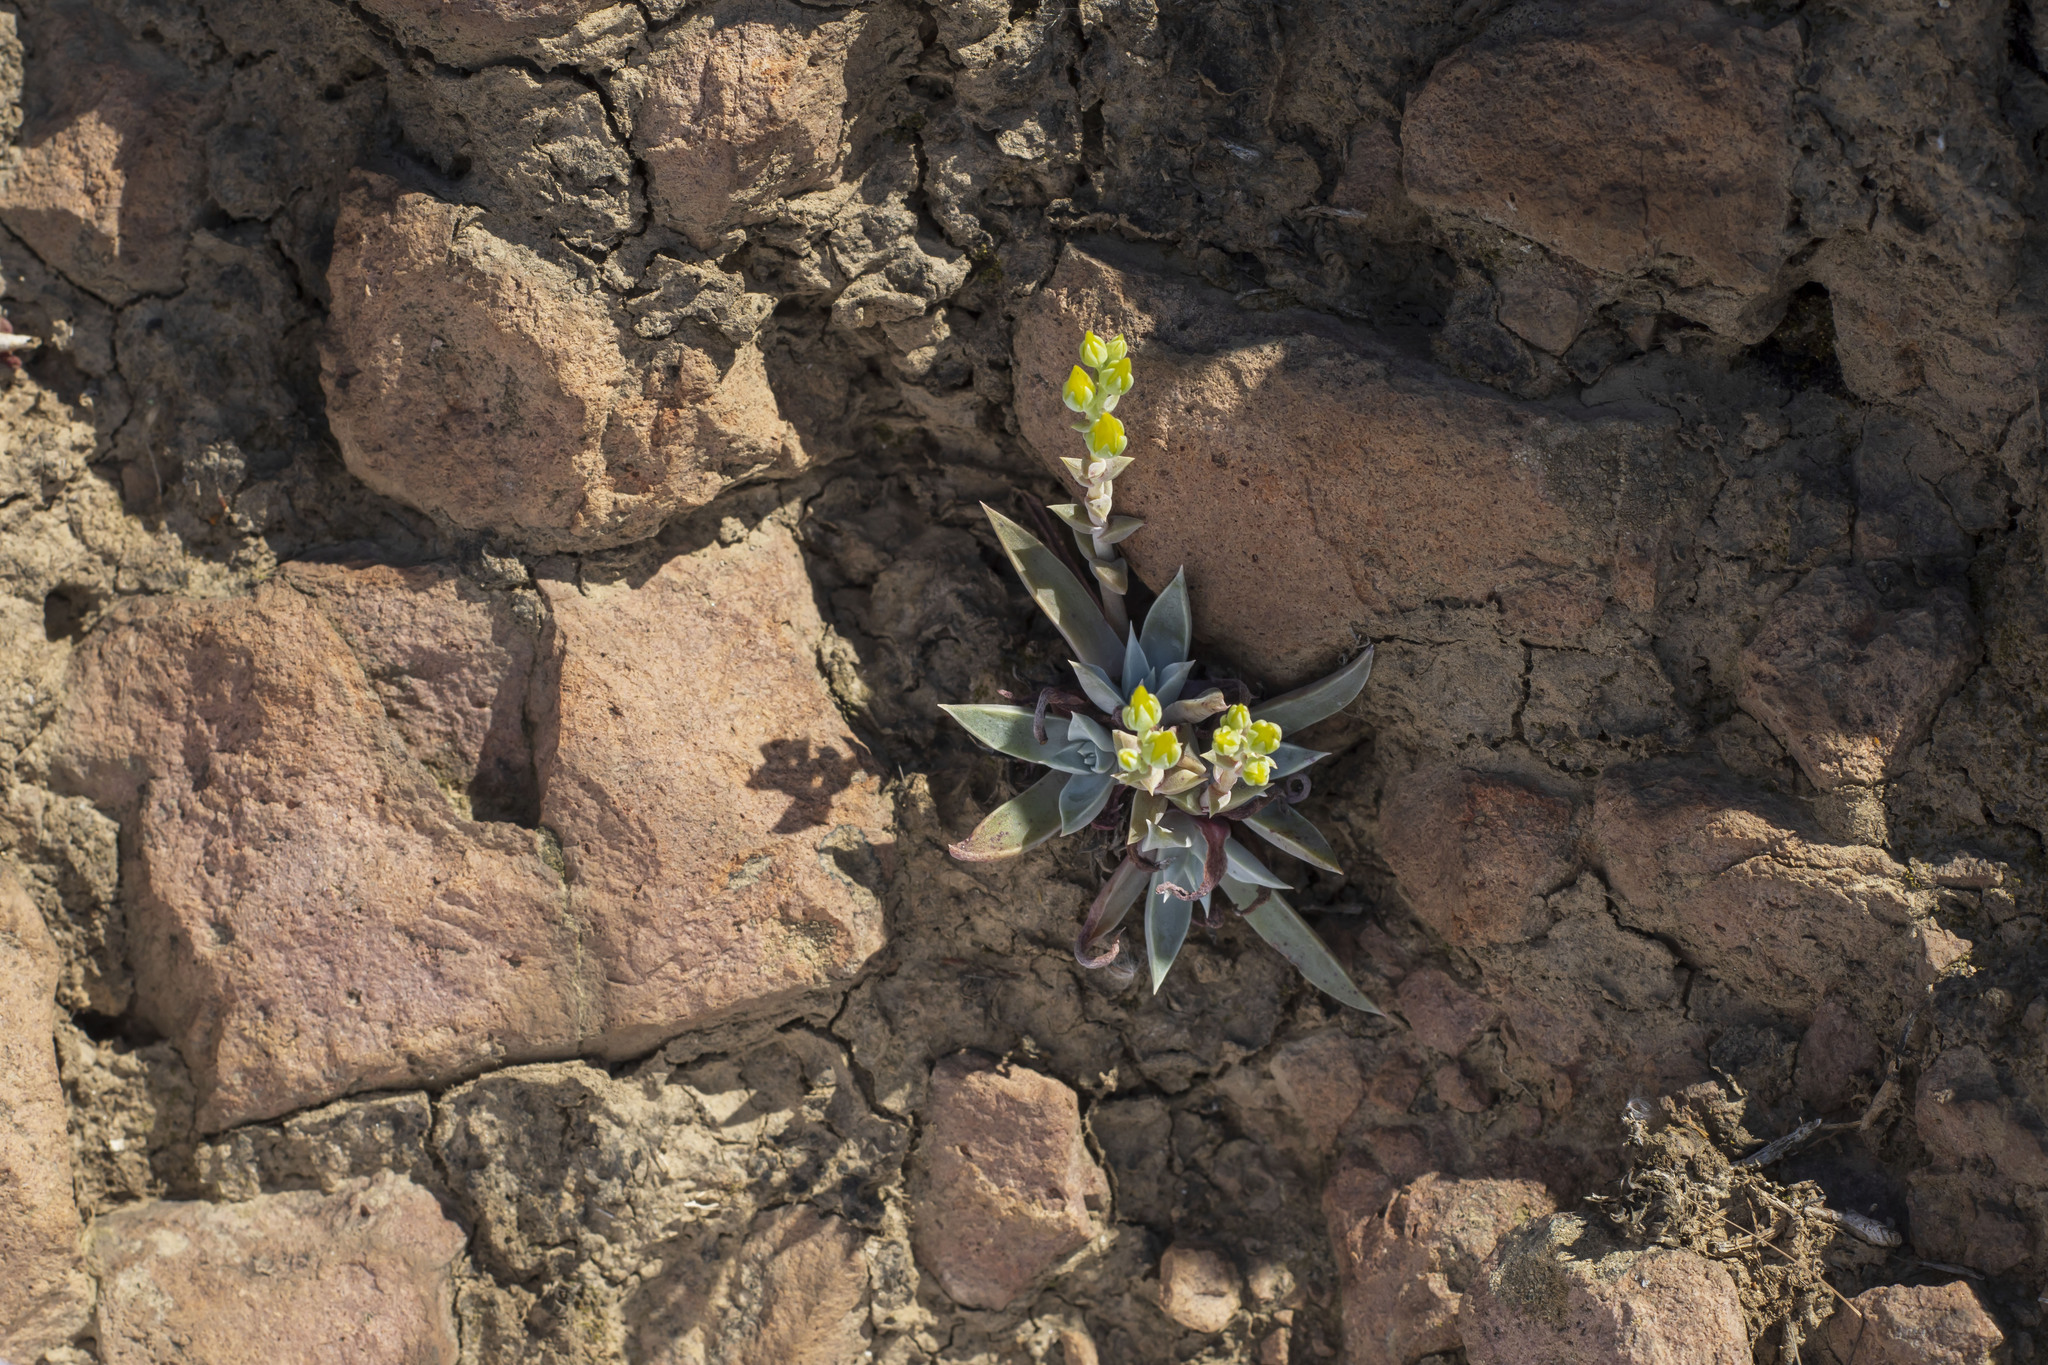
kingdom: Plantae
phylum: Tracheophyta
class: Magnoliopsida
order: Saxifragales
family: Crassulaceae
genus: Dudleya
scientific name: Dudleya verityi
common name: Verity dudleya
